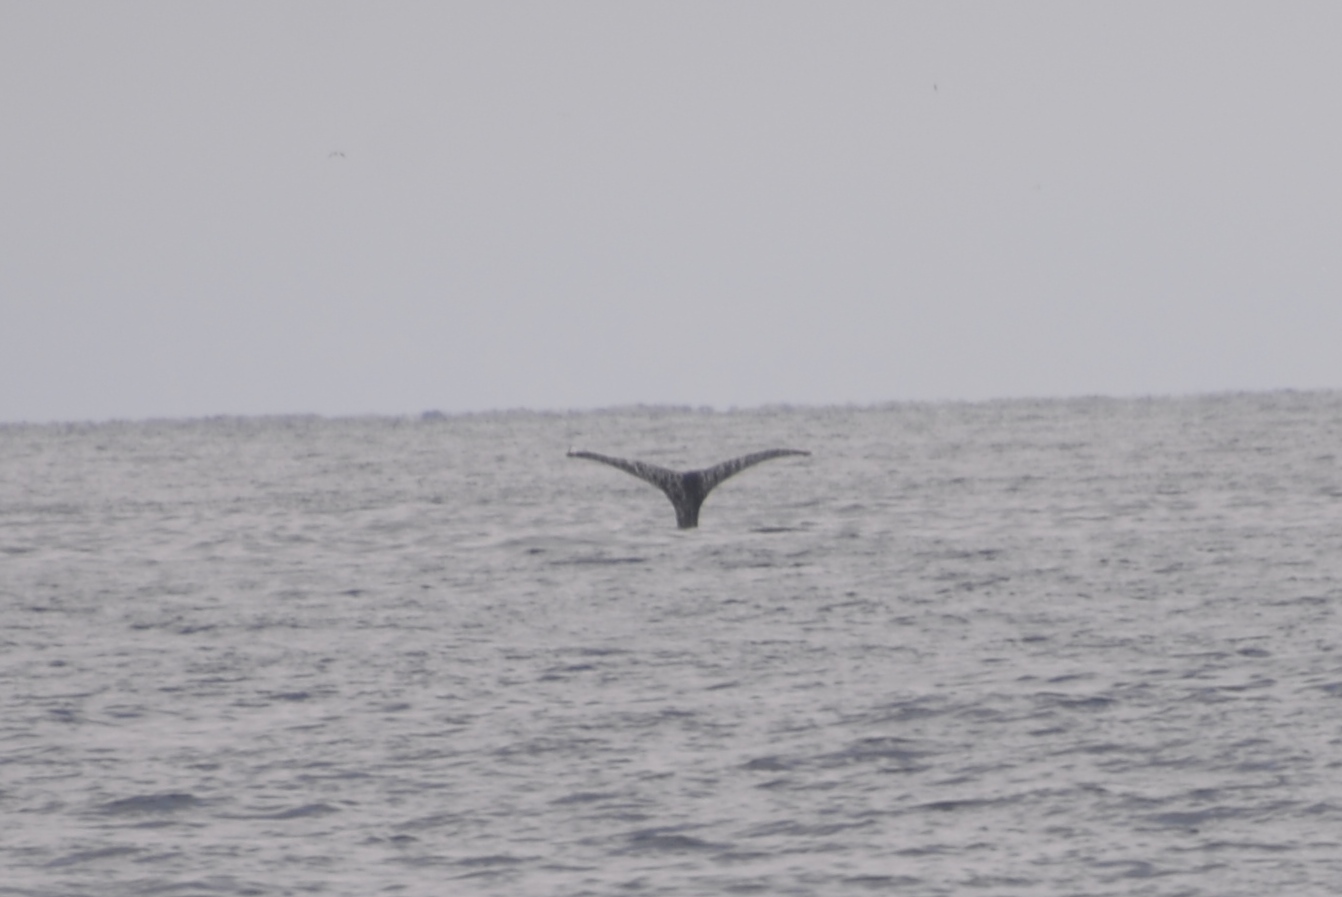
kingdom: Animalia
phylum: Chordata
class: Mammalia
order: Cetacea
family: Balaenopteridae
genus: Megaptera
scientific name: Megaptera novaeangliae
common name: Humpback whale
